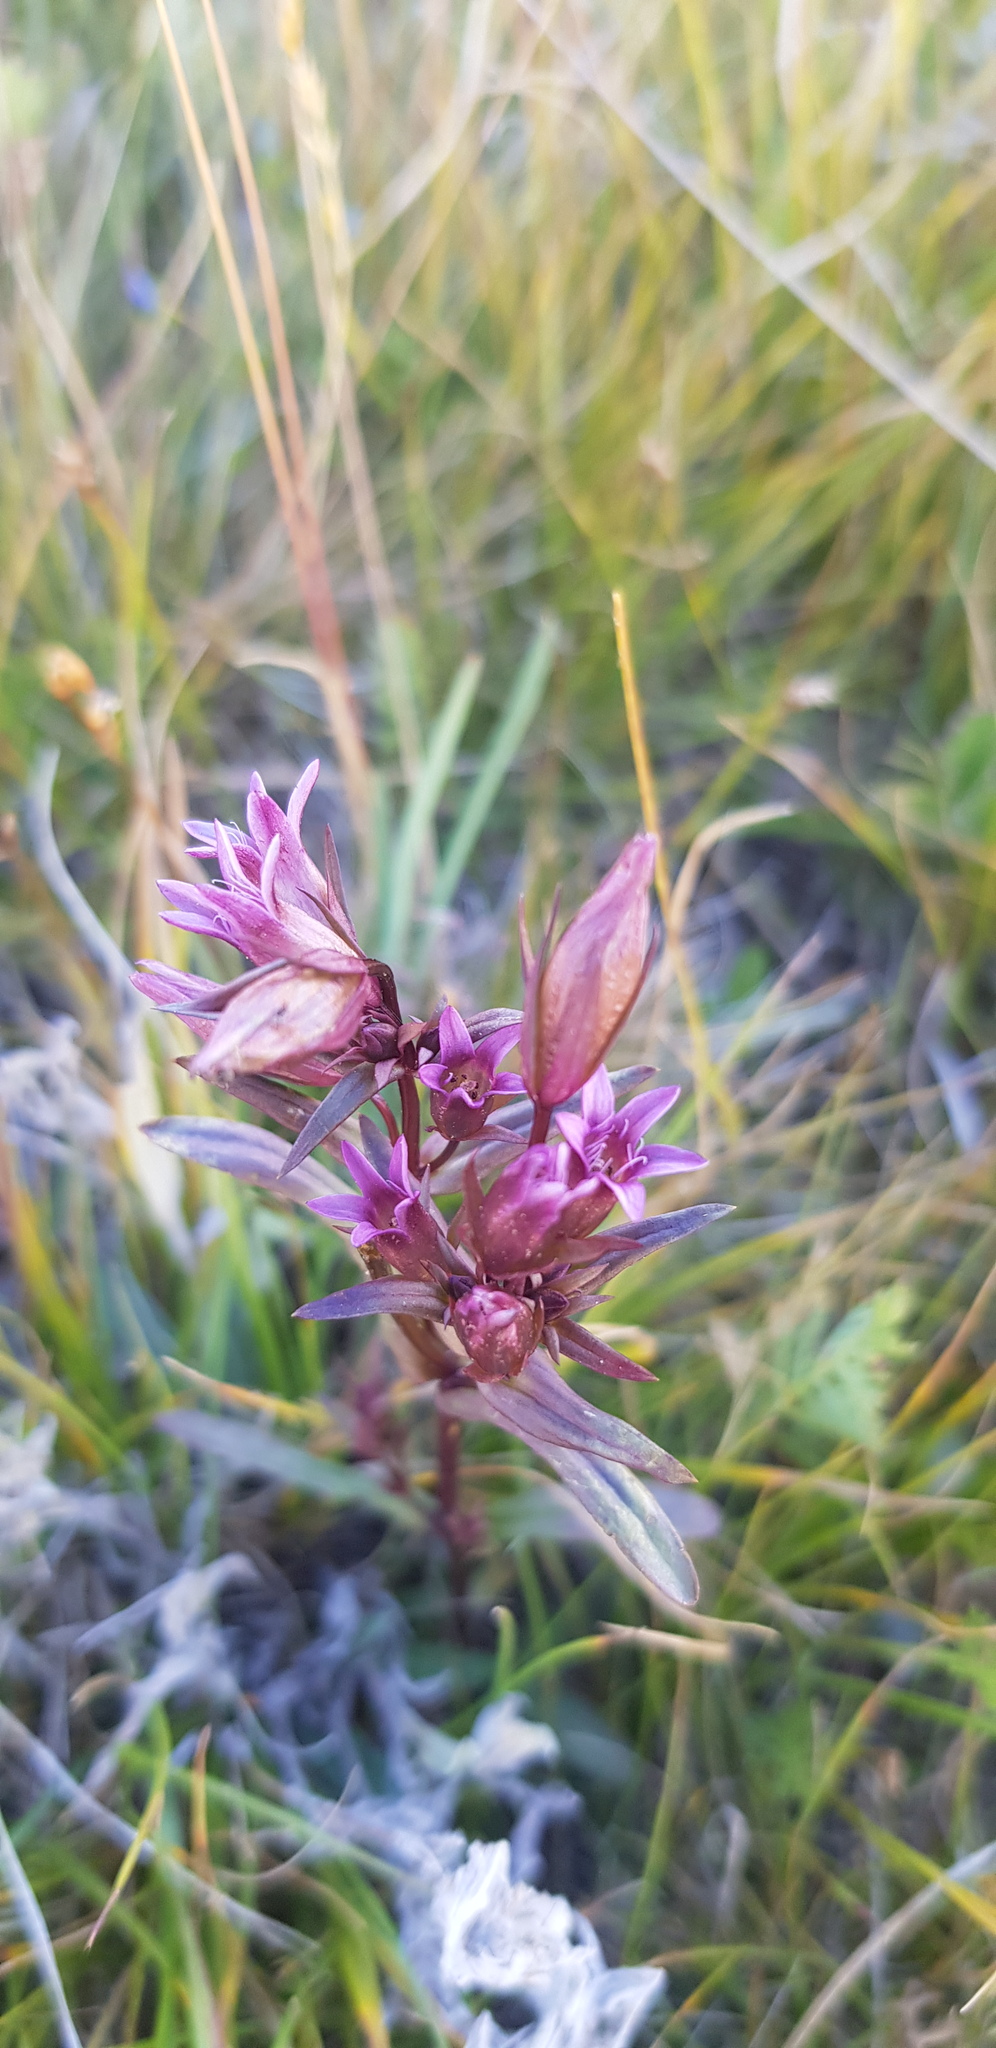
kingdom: Plantae
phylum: Tracheophyta
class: Magnoliopsida
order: Gentianales
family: Gentianaceae
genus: Gentianella
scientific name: Gentianella amarella
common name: Autumn gentian
